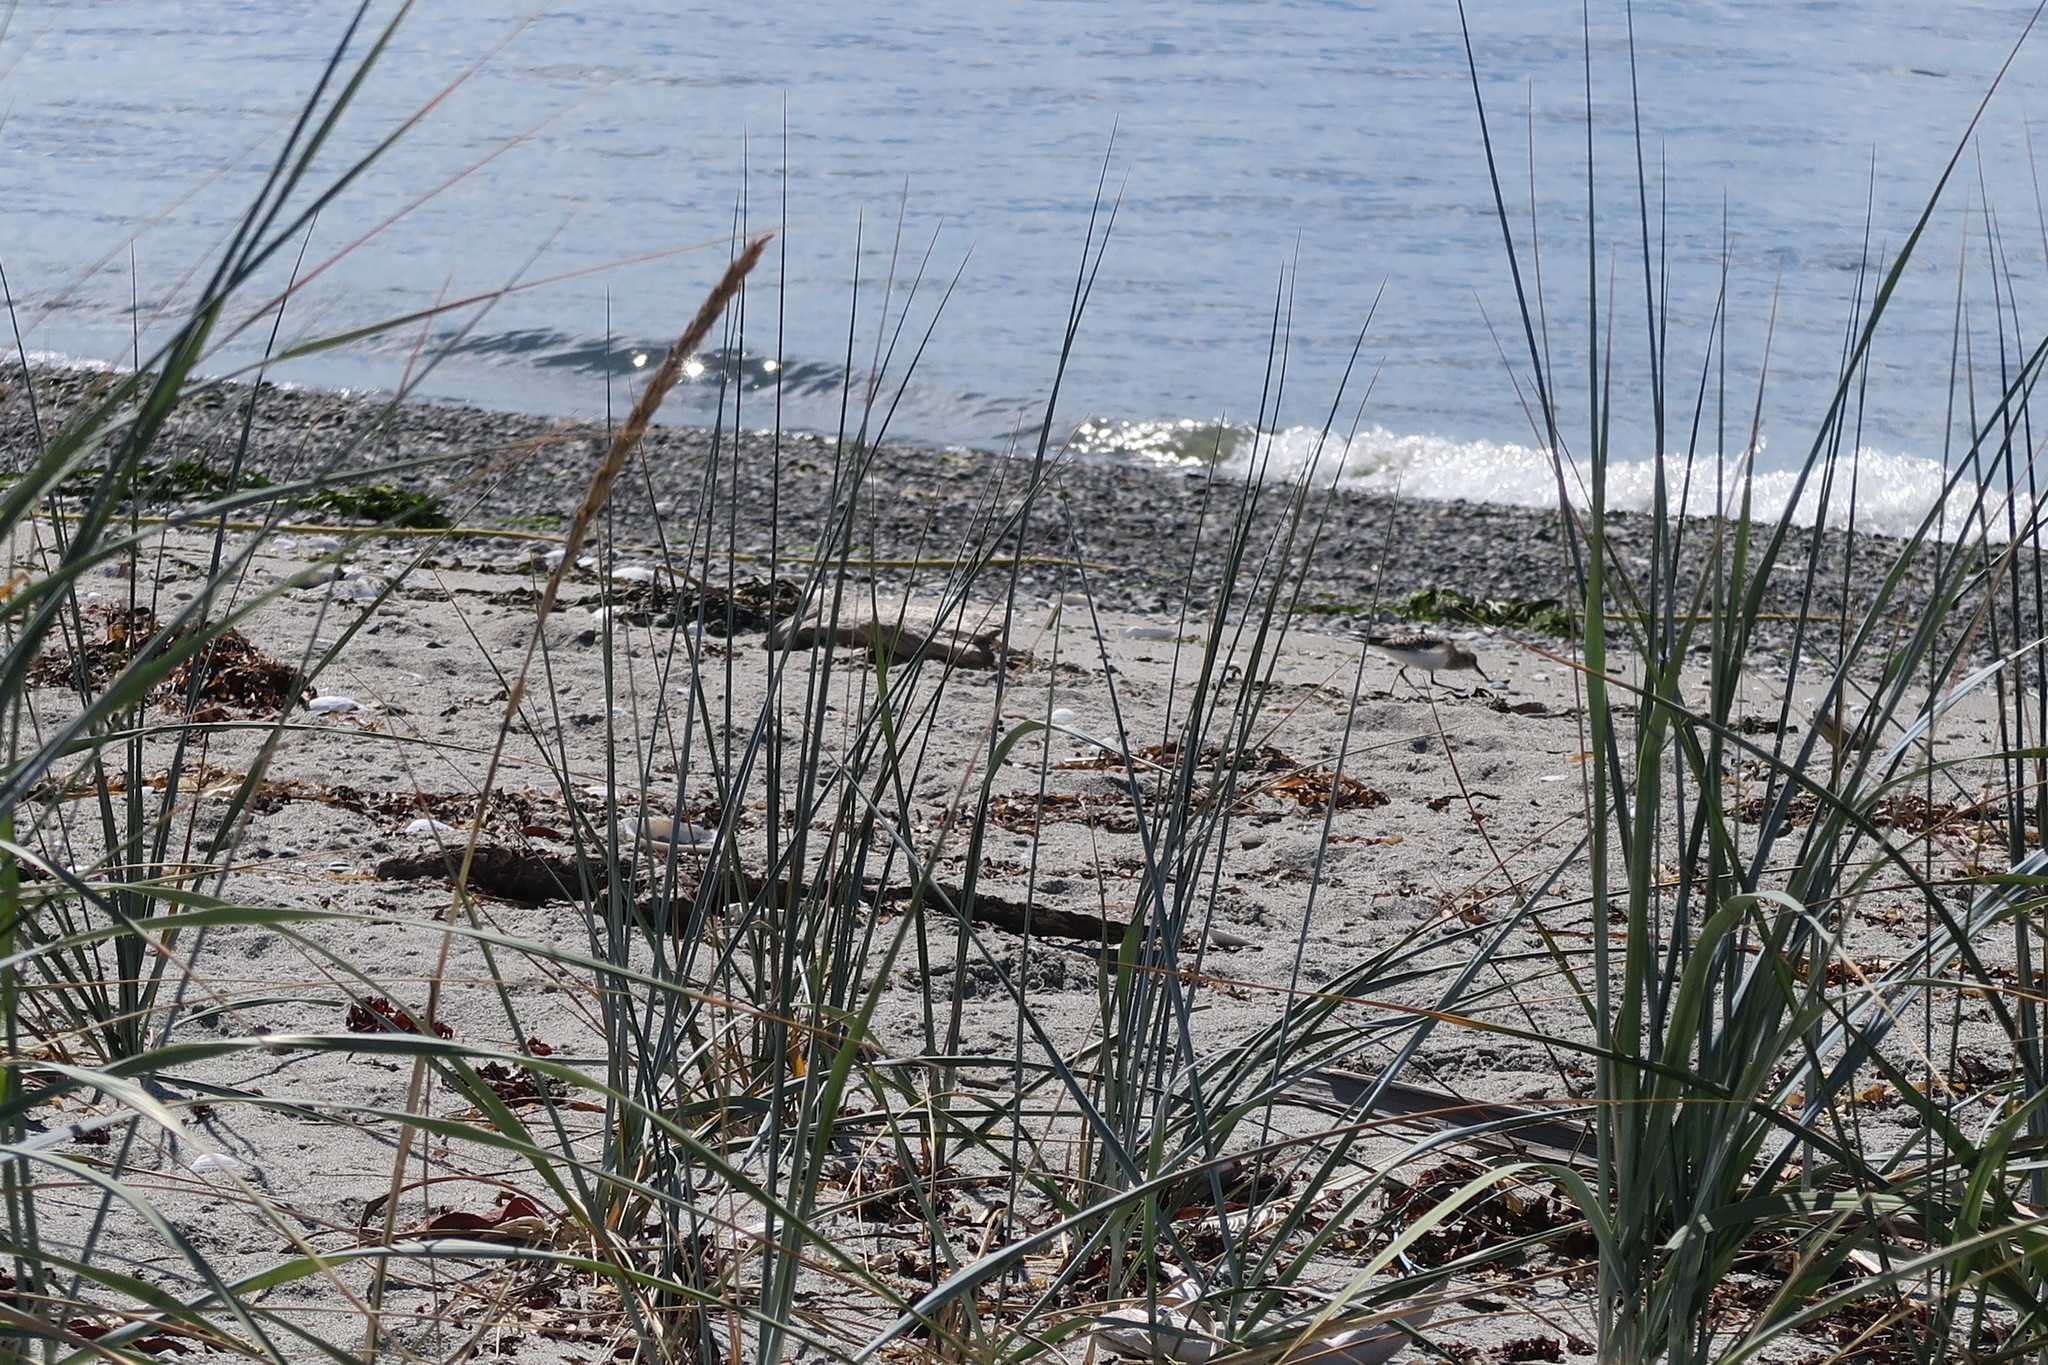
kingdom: Plantae
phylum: Tracheophyta
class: Liliopsida
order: Poales
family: Poaceae
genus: Leymus
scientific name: Leymus mollis
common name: American dune grass
